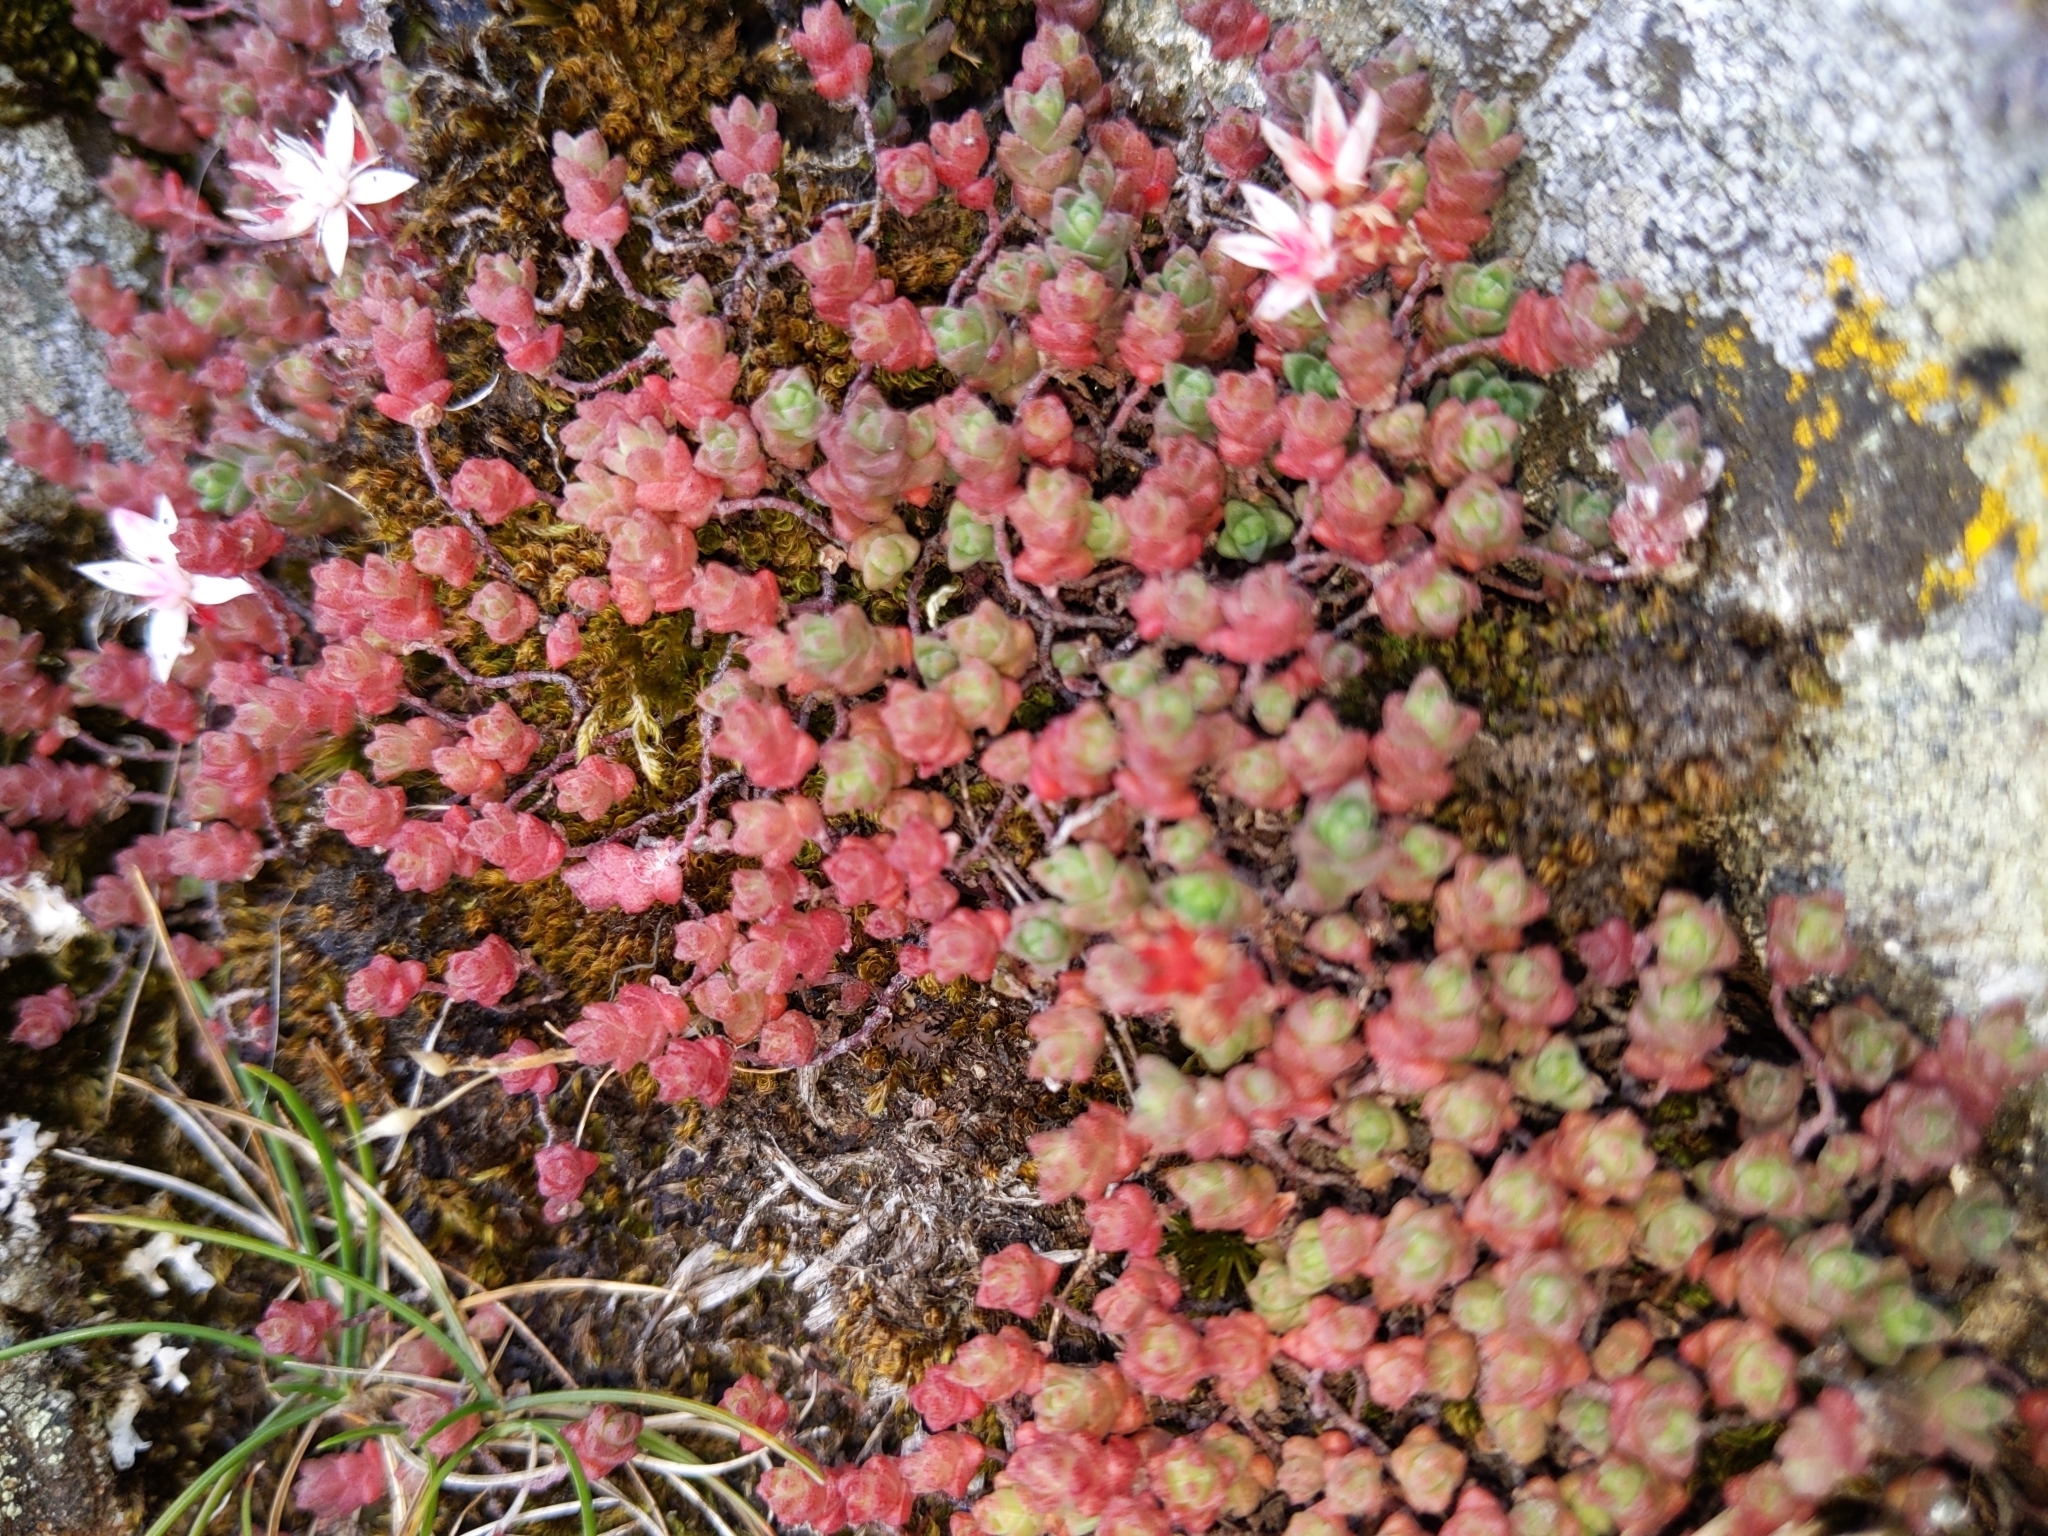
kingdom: Plantae
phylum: Tracheophyta
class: Magnoliopsida
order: Saxifragales
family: Crassulaceae
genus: Sedum
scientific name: Sedum anglicum
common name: English stonecrop
